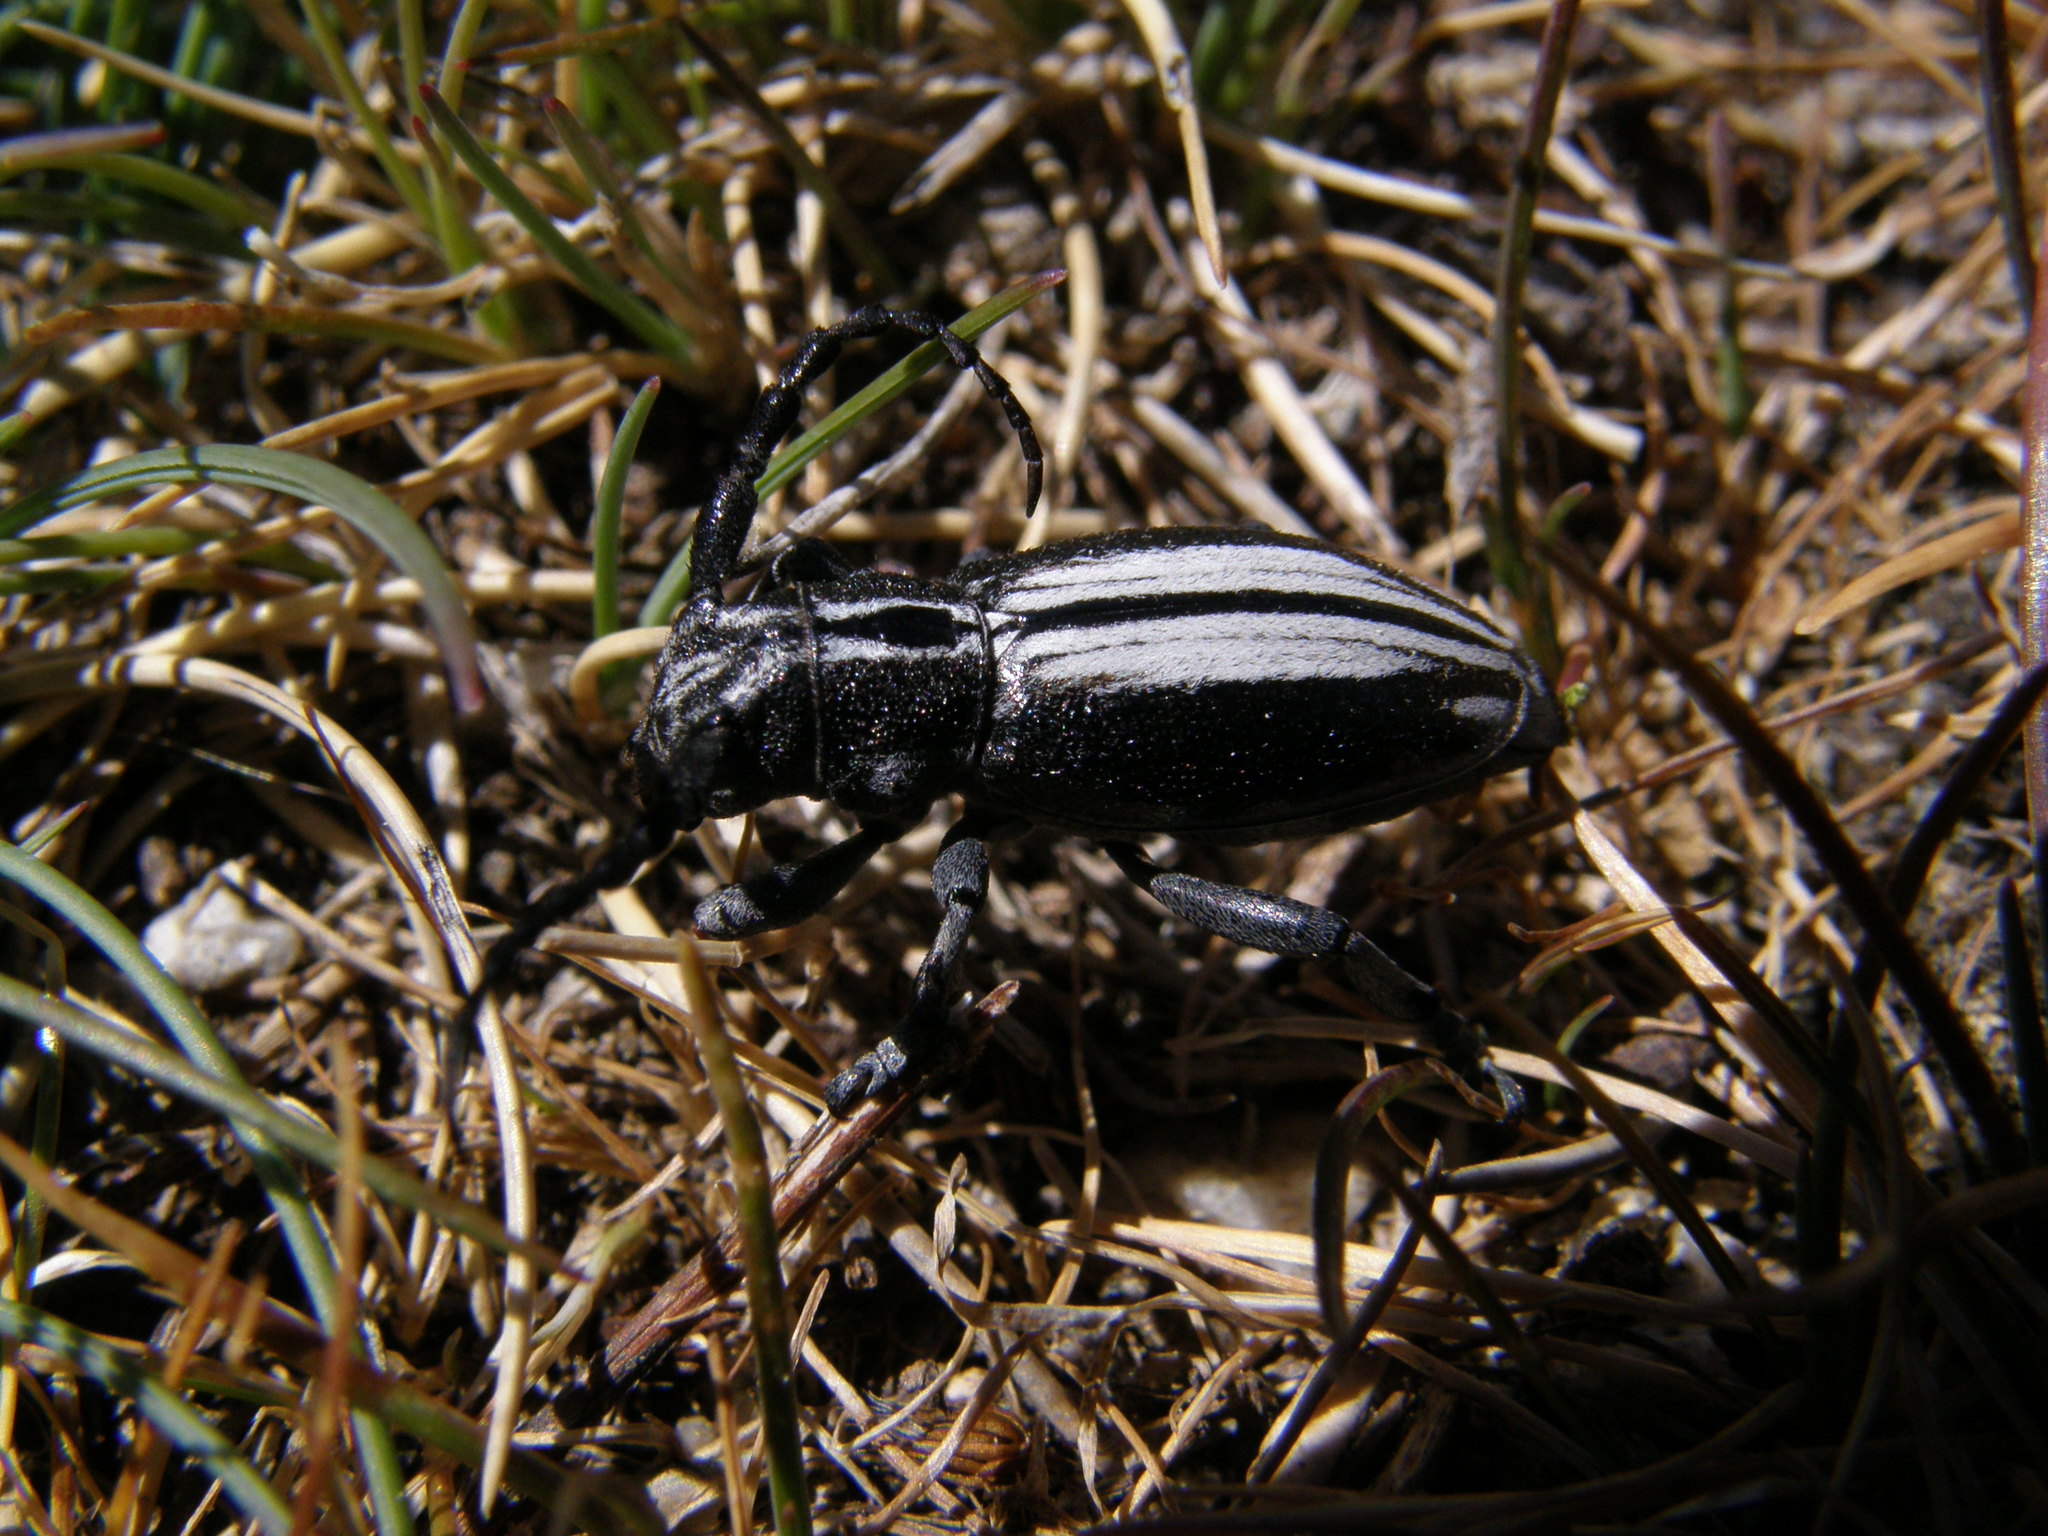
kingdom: Animalia
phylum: Arthropoda
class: Insecta
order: Coleoptera
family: Cerambycidae
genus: Iberodorcadion
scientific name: Iberodorcadion perezi
